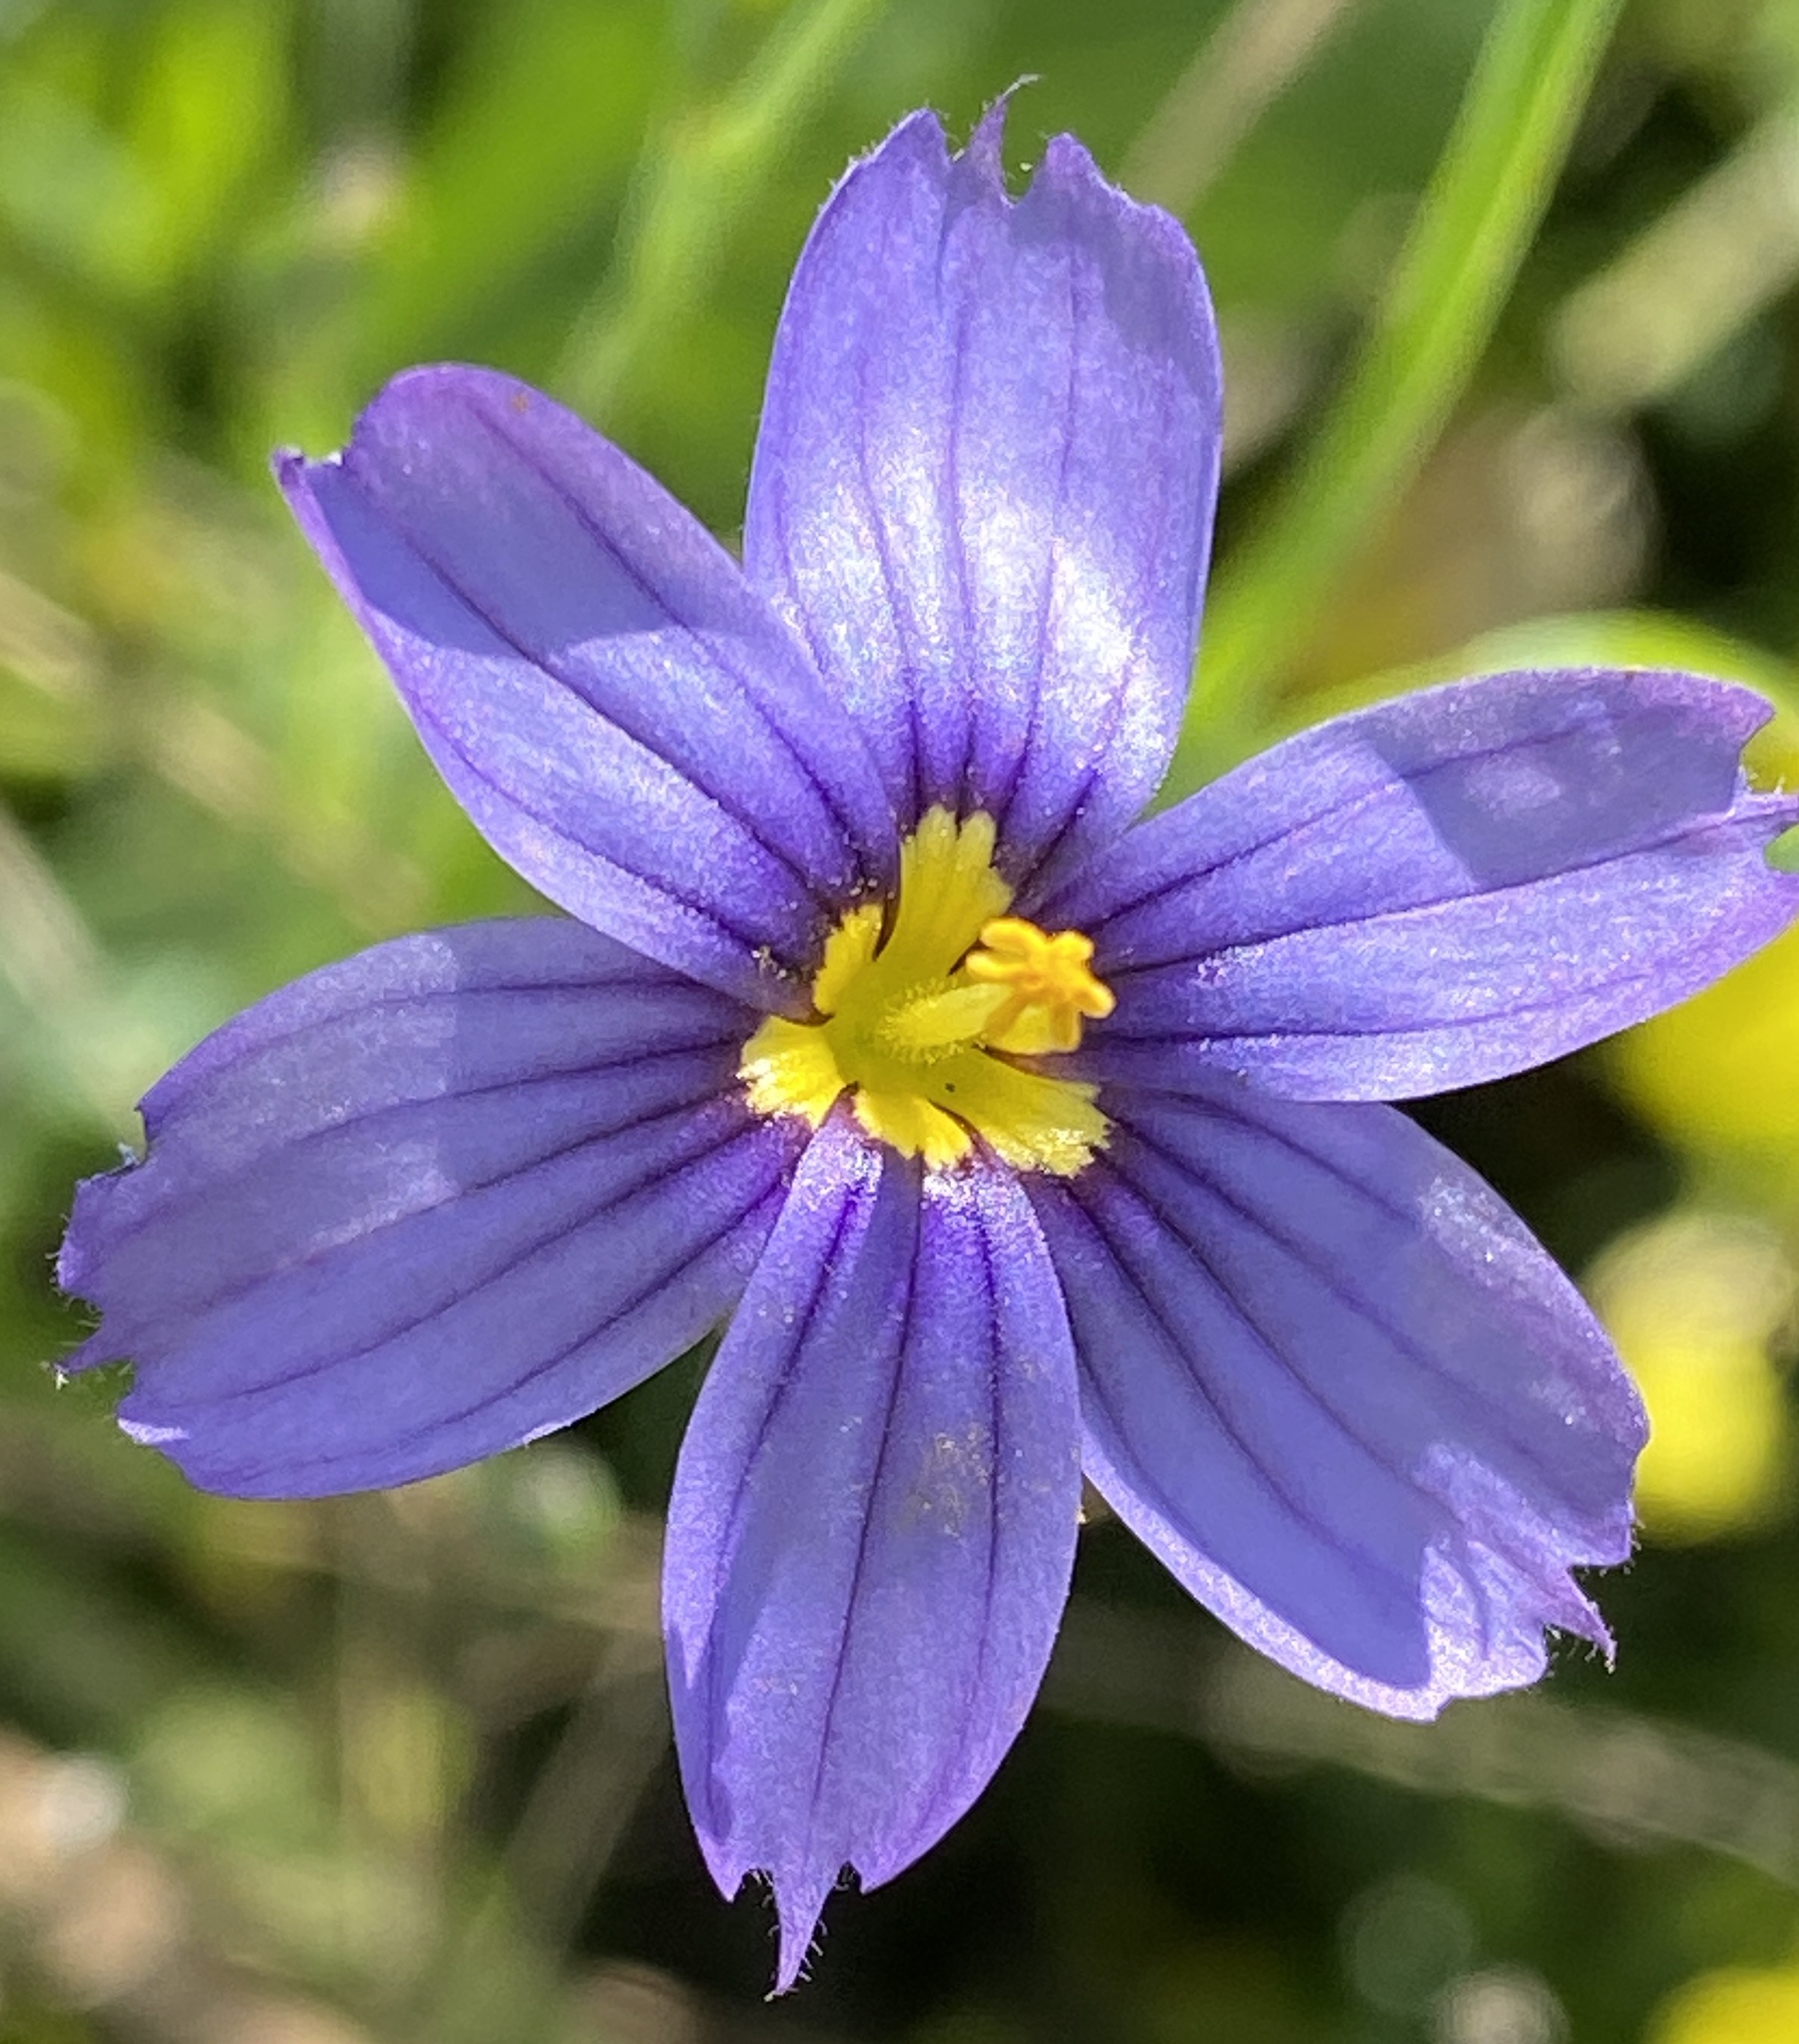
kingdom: Plantae
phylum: Tracheophyta
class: Liliopsida
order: Asparagales
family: Iridaceae
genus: Sisyrinchium
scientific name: Sisyrinchium bellum
